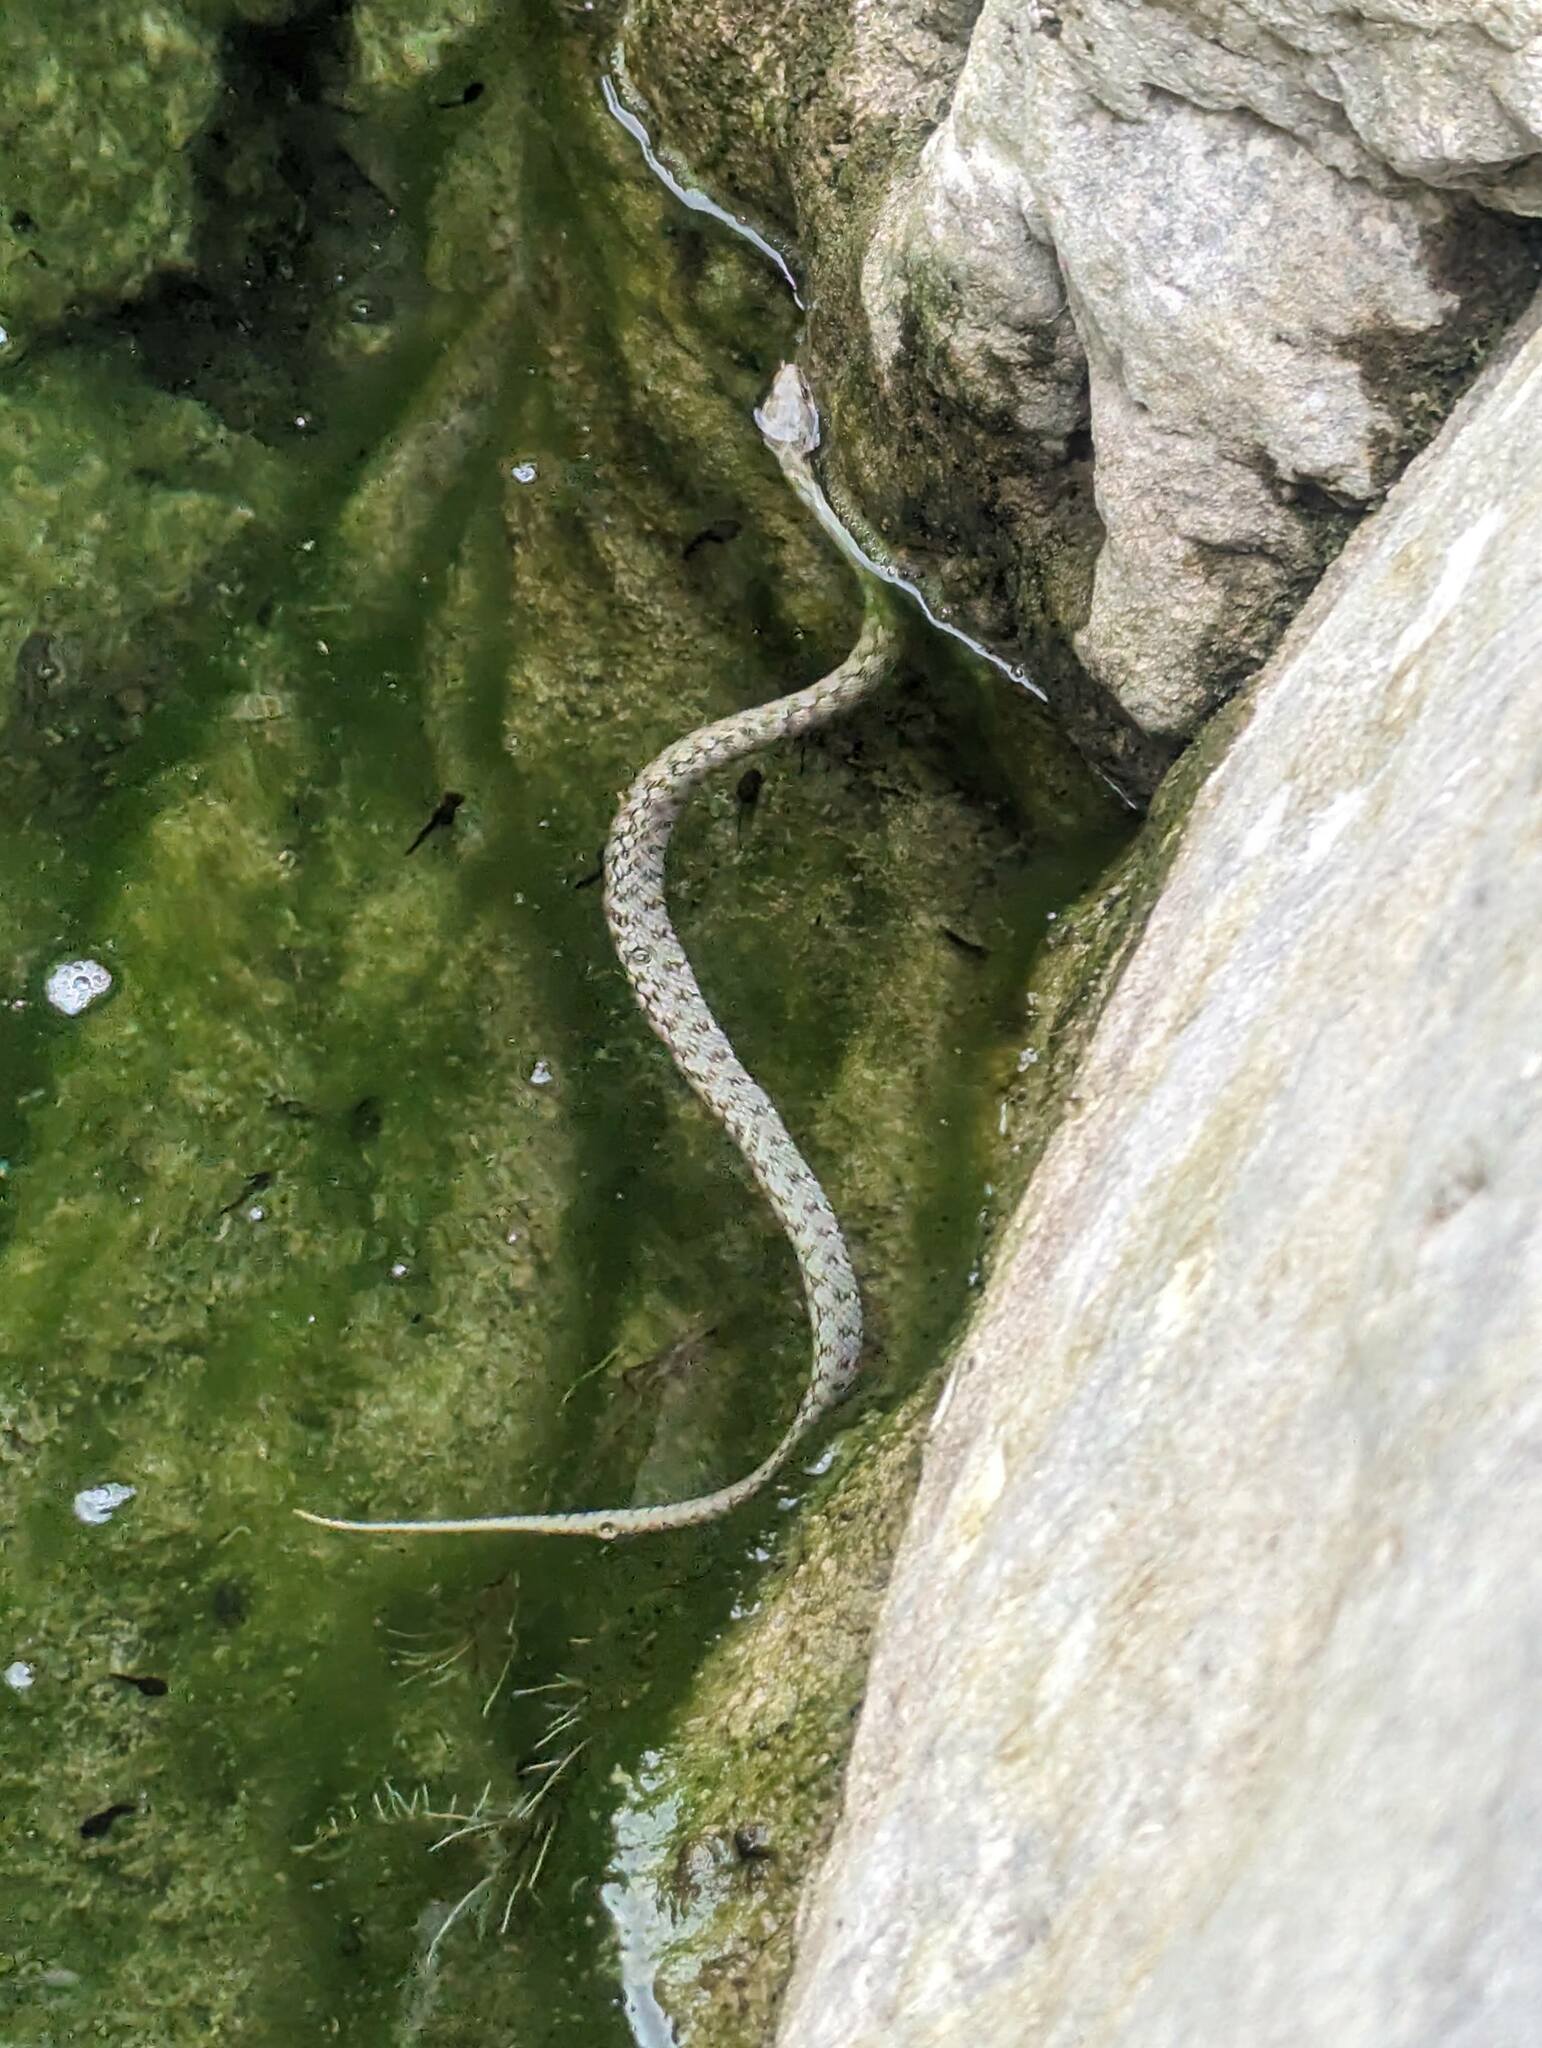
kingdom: Animalia
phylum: Chordata
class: Squamata
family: Colubridae
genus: Natrix
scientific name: Natrix maura
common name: Viperine water snake
